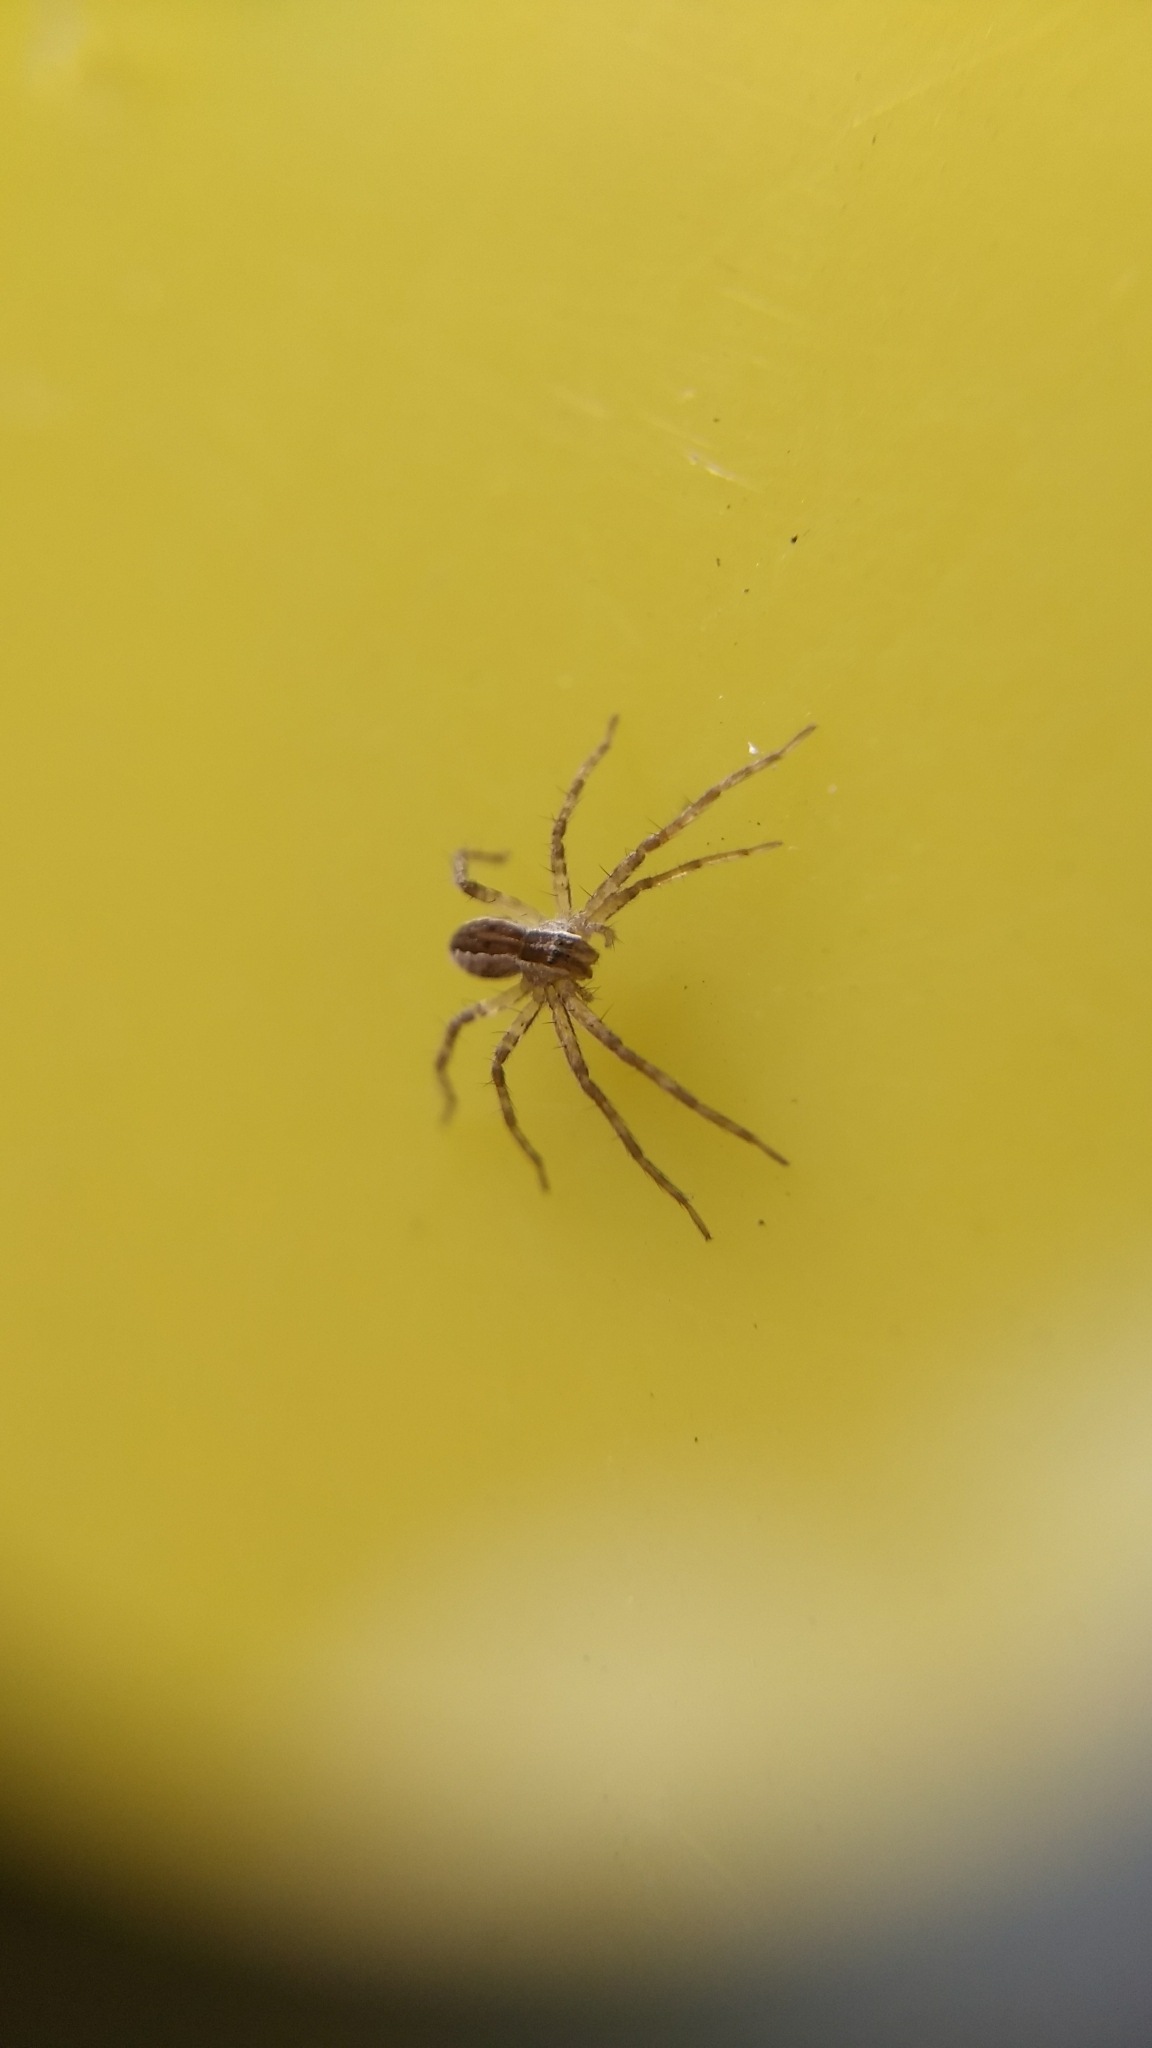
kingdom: Animalia
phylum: Arthropoda
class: Arachnida
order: Araneae
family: Pisauridae
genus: Pisaurina
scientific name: Pisaurina mira
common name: American nursery web spider
